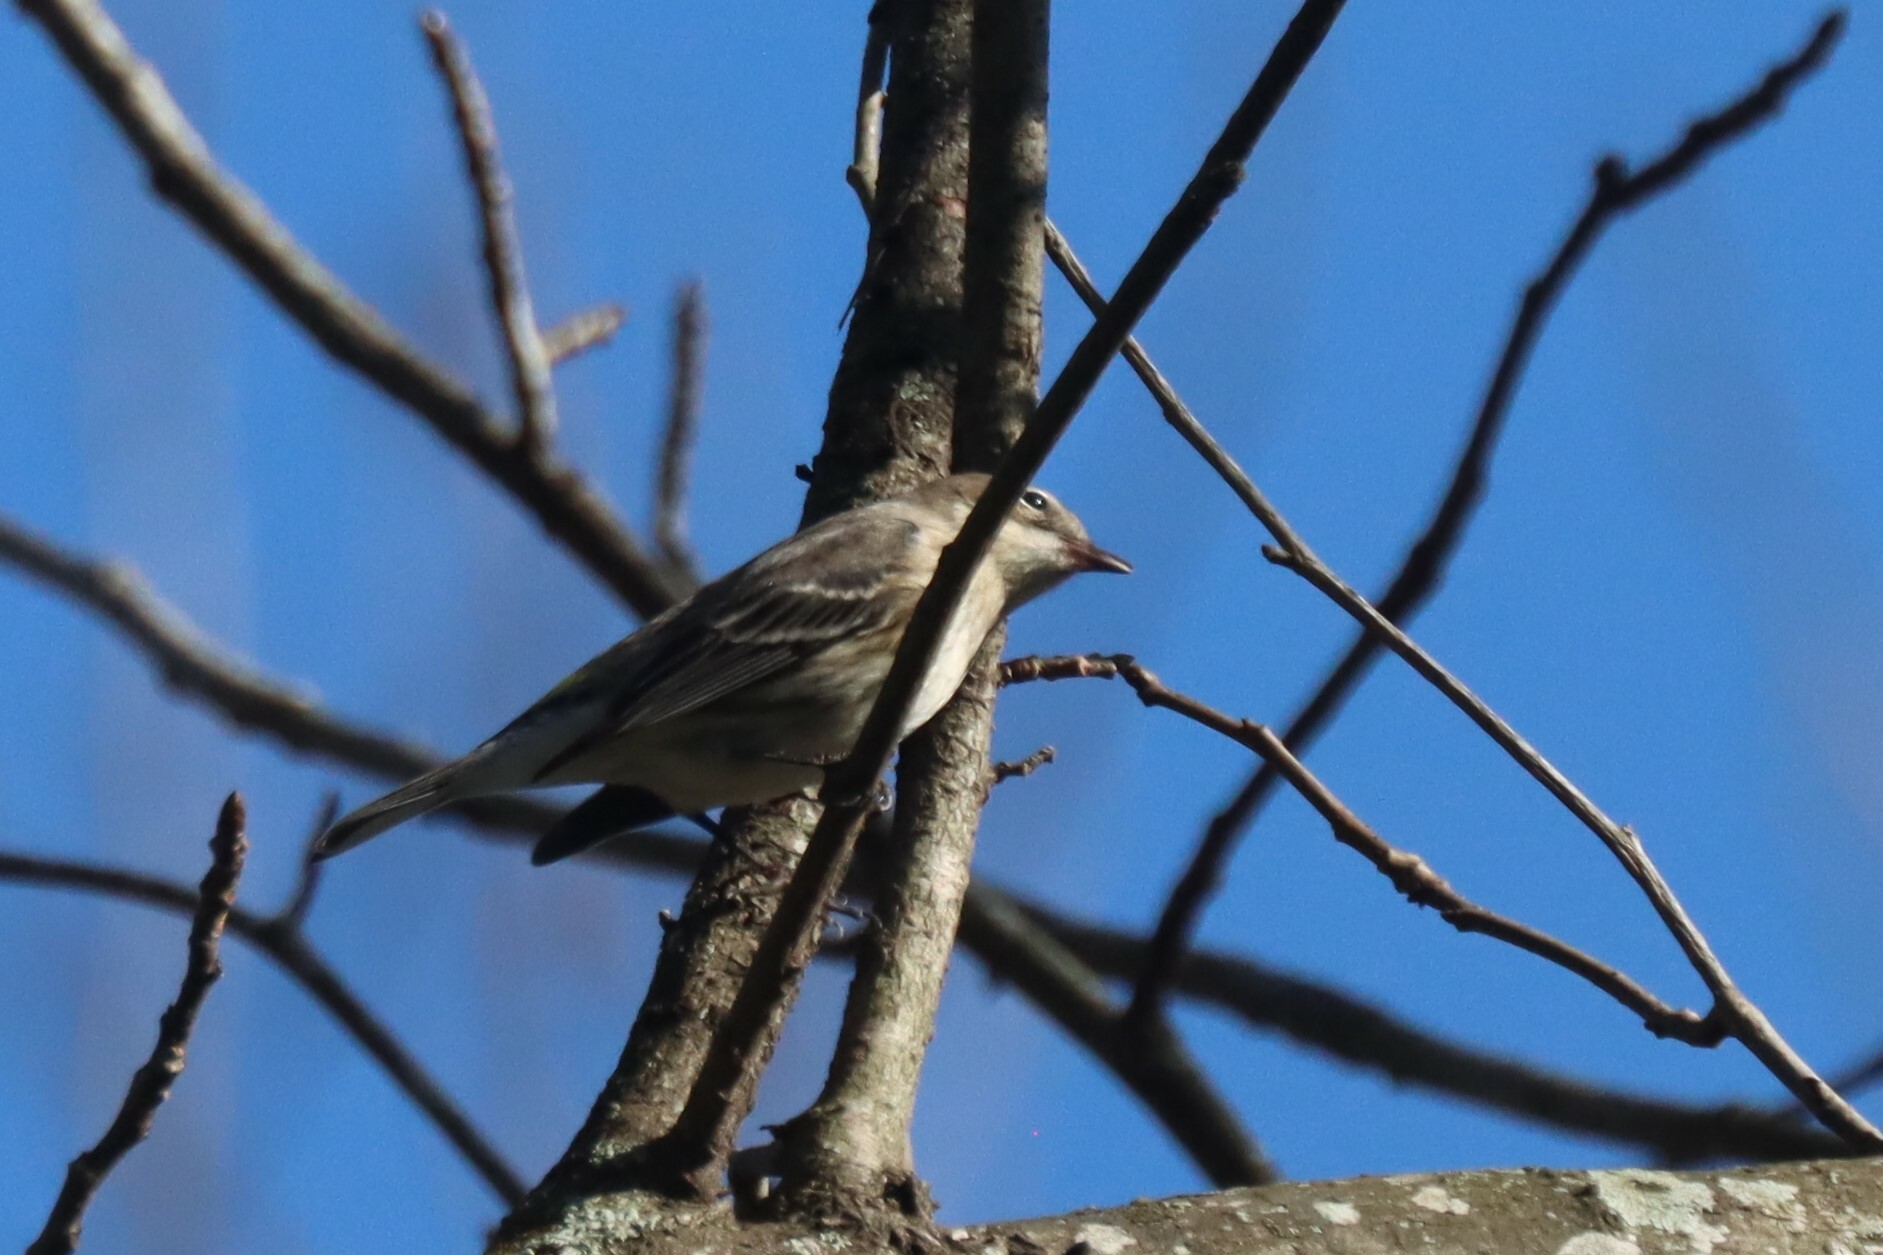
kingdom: Animalia
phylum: Chordata
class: Aves
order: Passeriformes
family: Parulidae
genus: Setophaga
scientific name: Setophaga coronata
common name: Myrtle warbler
